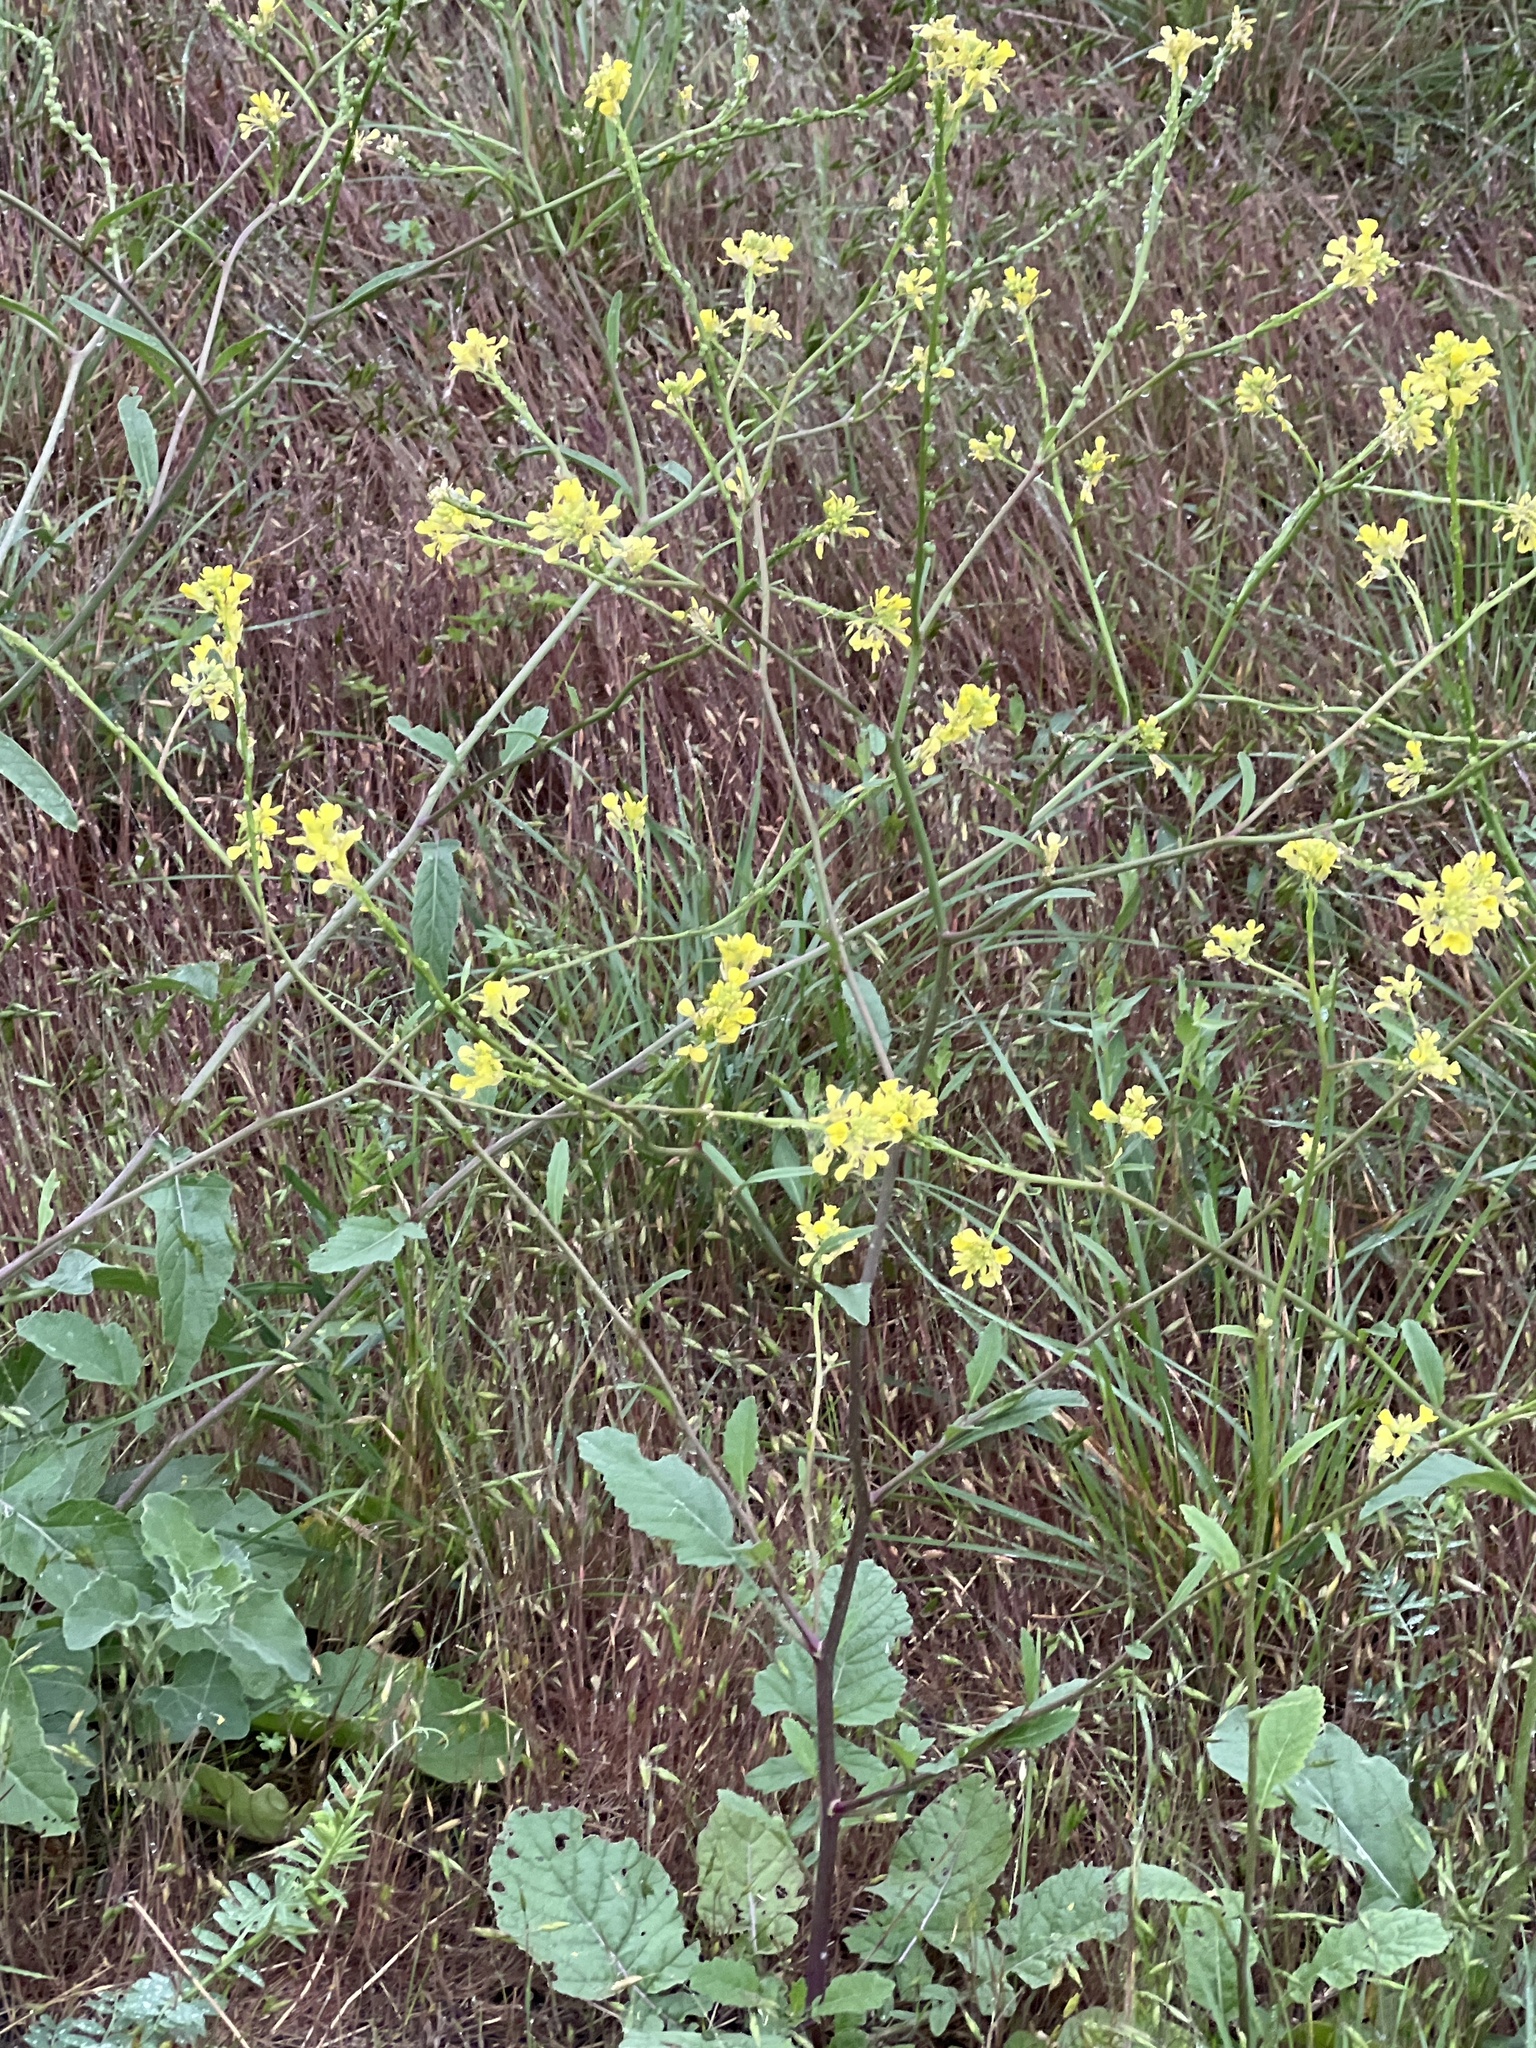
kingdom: Plantae
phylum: Tracheophyta
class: Magnoliopsida
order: Brassicales
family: Brassicaceae
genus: Rapistrum
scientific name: Rapistrum rugosum
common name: Annual bastardcabbage
